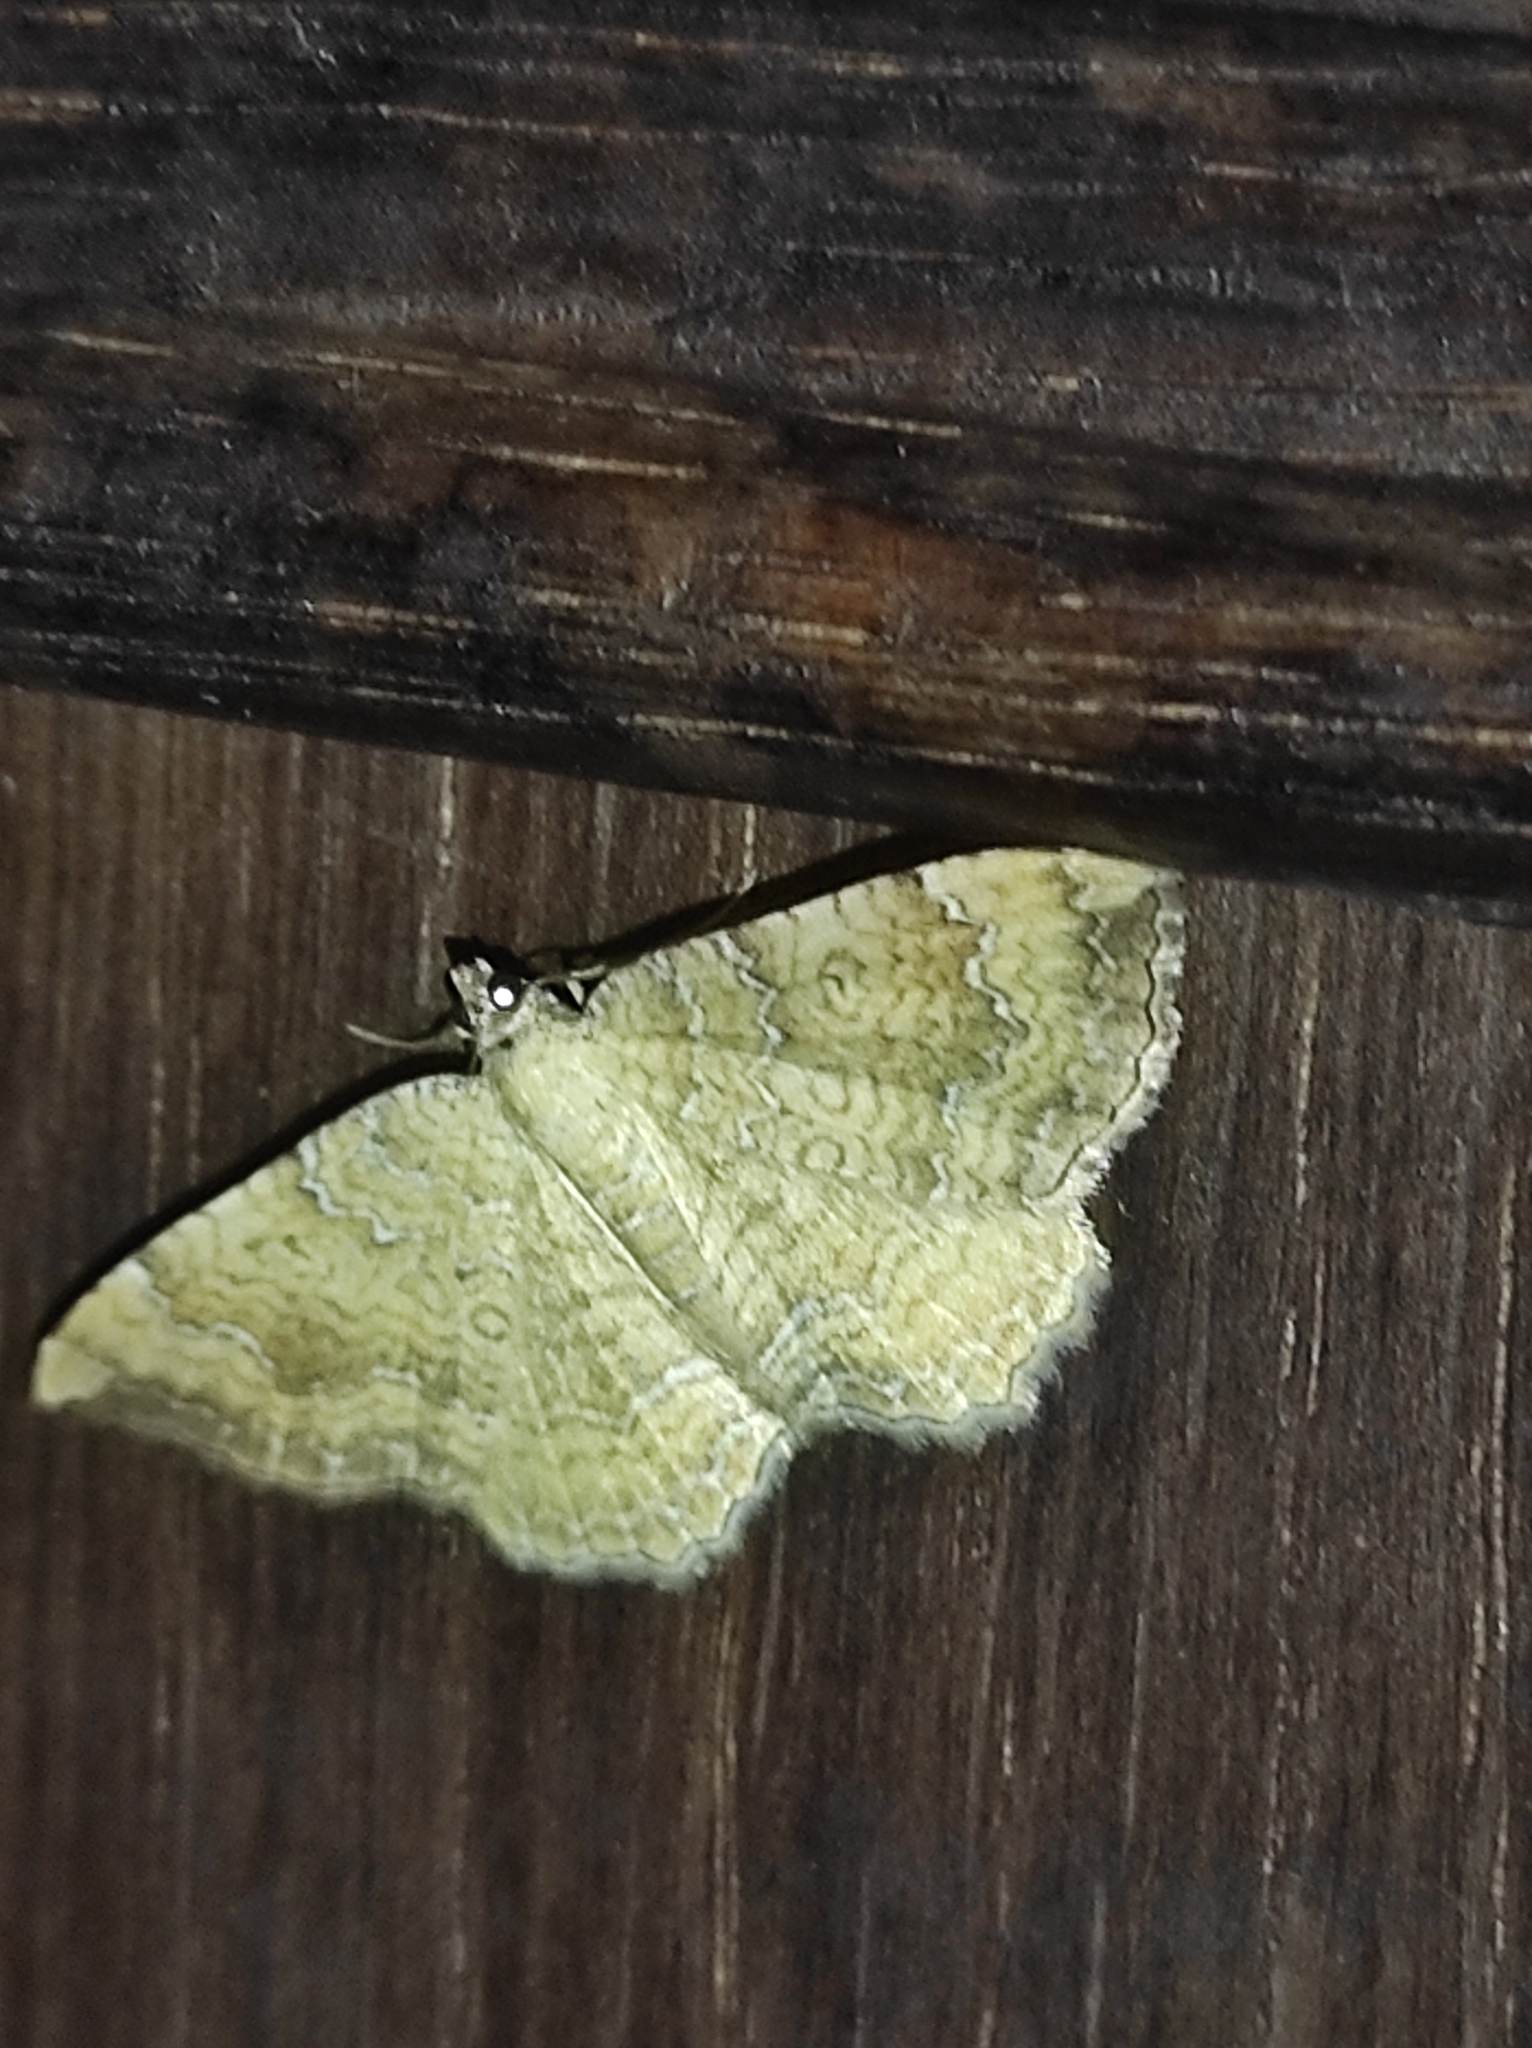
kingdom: Animalia
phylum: Arthropoda
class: Insecta
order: Lepidoptera
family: Geometridae
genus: Camptogramma
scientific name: Camptogramma bilineata
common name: Yellow shell
